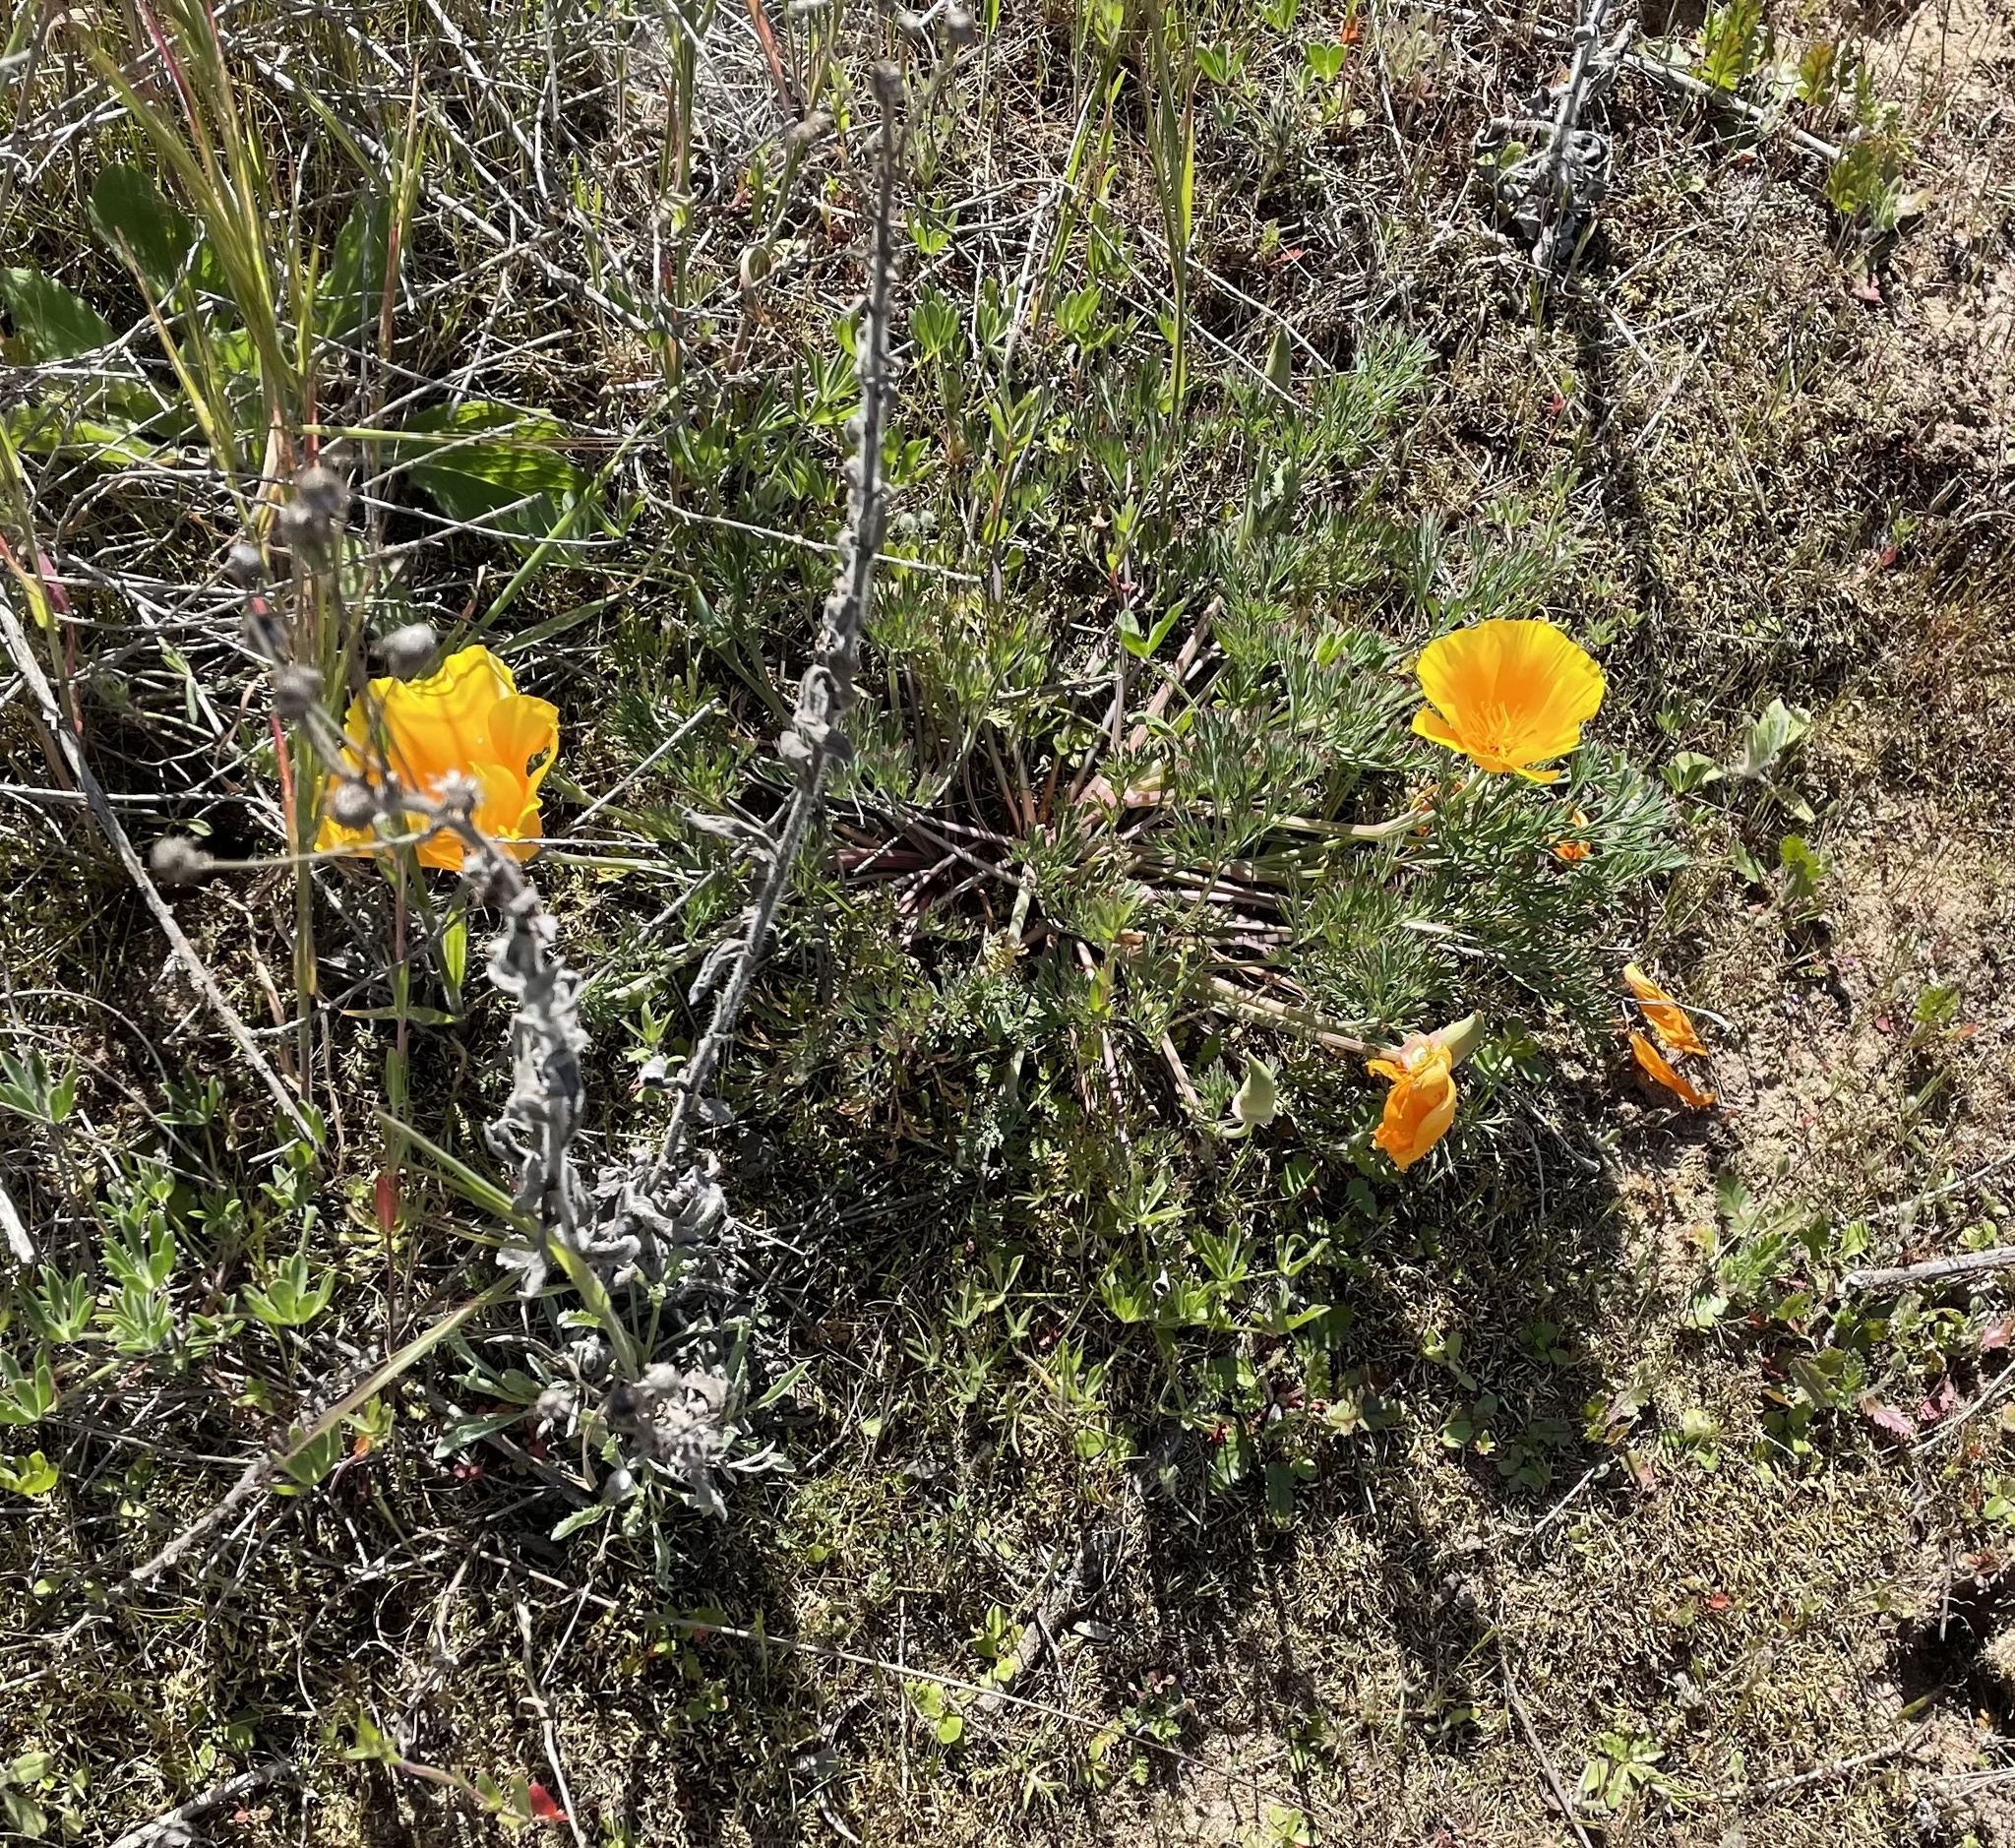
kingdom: Plantae
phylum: Tracheophyta
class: Magnoliopsida
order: Ranunculales
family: Papaveraceae
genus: Eschscholzia
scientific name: Eschscholzia californica
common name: California poppy
